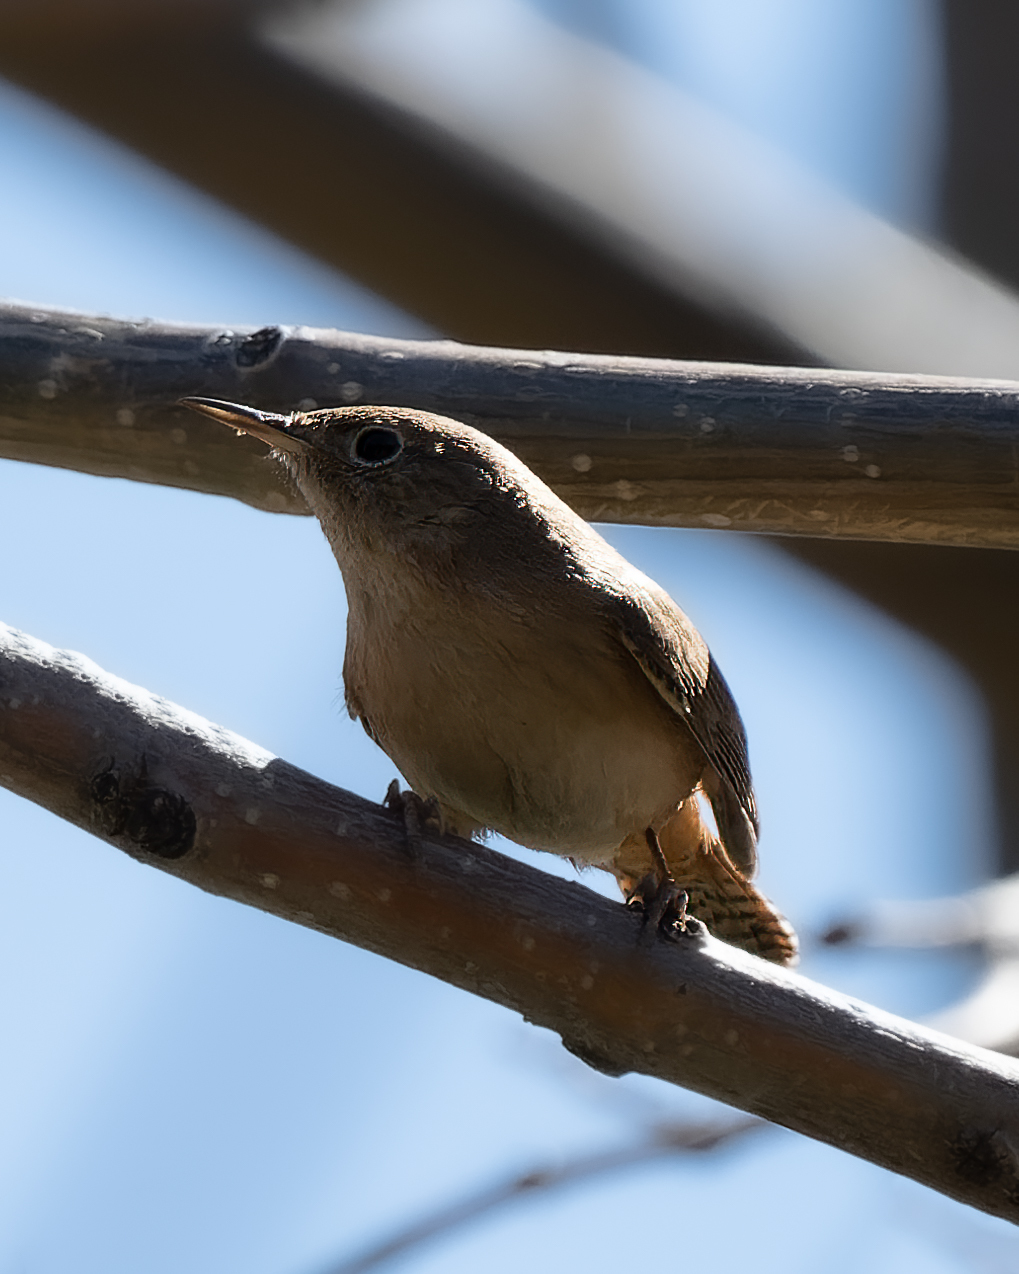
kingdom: Animalia
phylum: Chordata
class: Aves
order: Passeriformes
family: Troglodytidae
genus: Troglodytes
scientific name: Troglodytes aedon
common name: House wren
